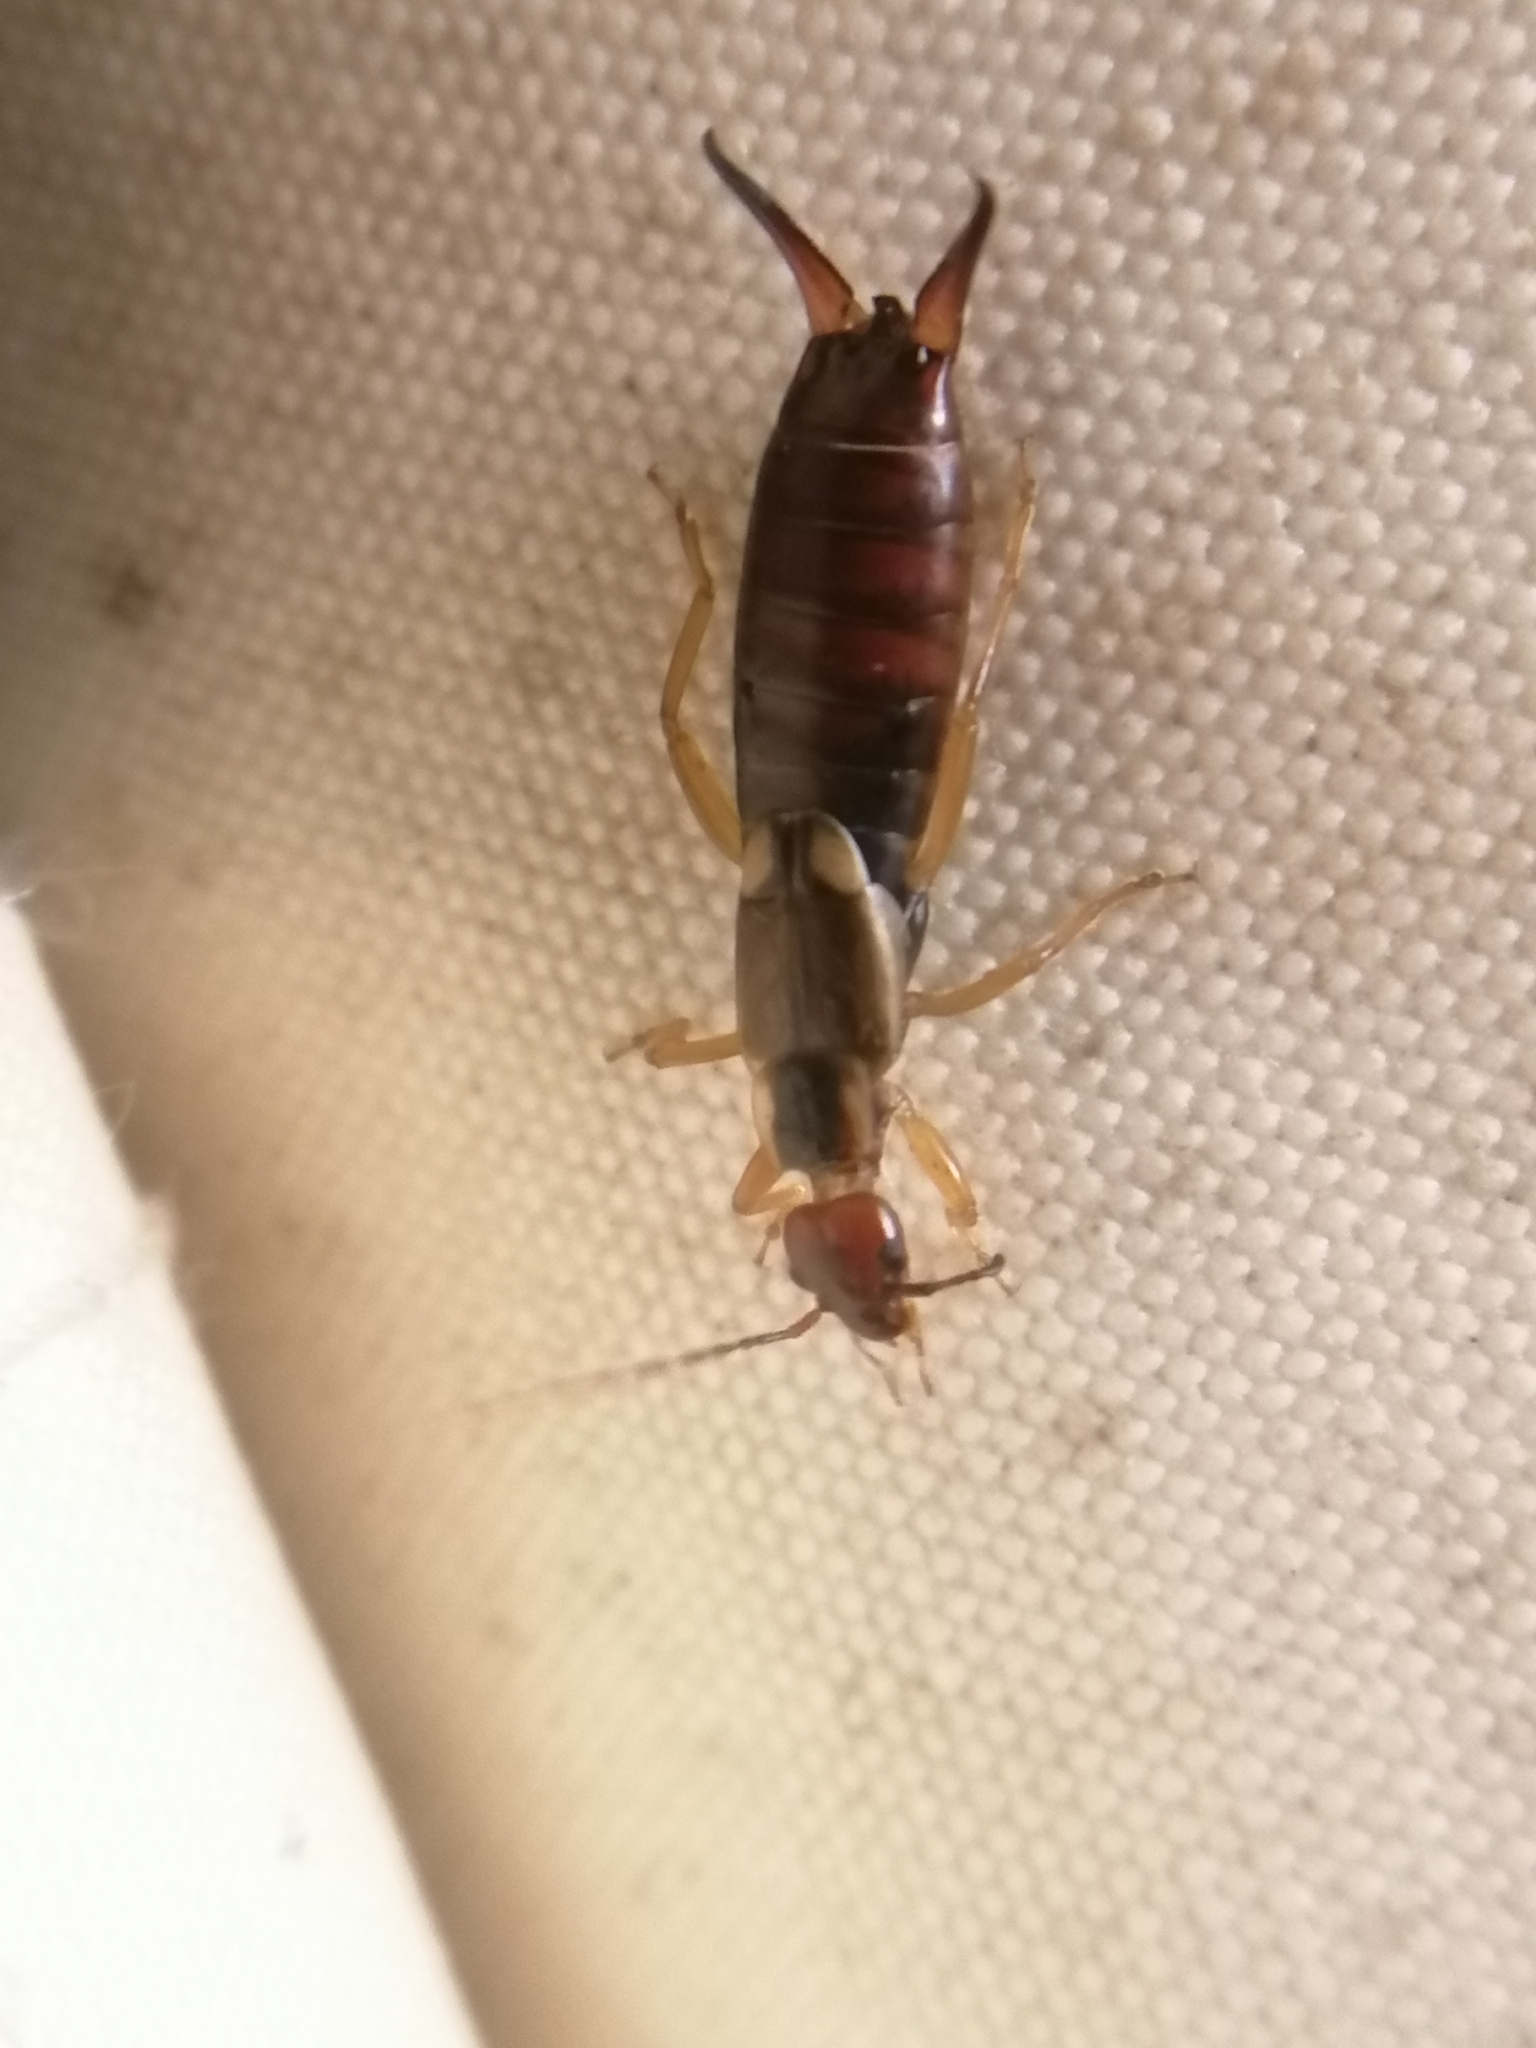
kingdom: Animalia
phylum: Arthropoda
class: Insecta
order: Dermaptera
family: Forficulidae
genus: Forficula
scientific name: Forficula
